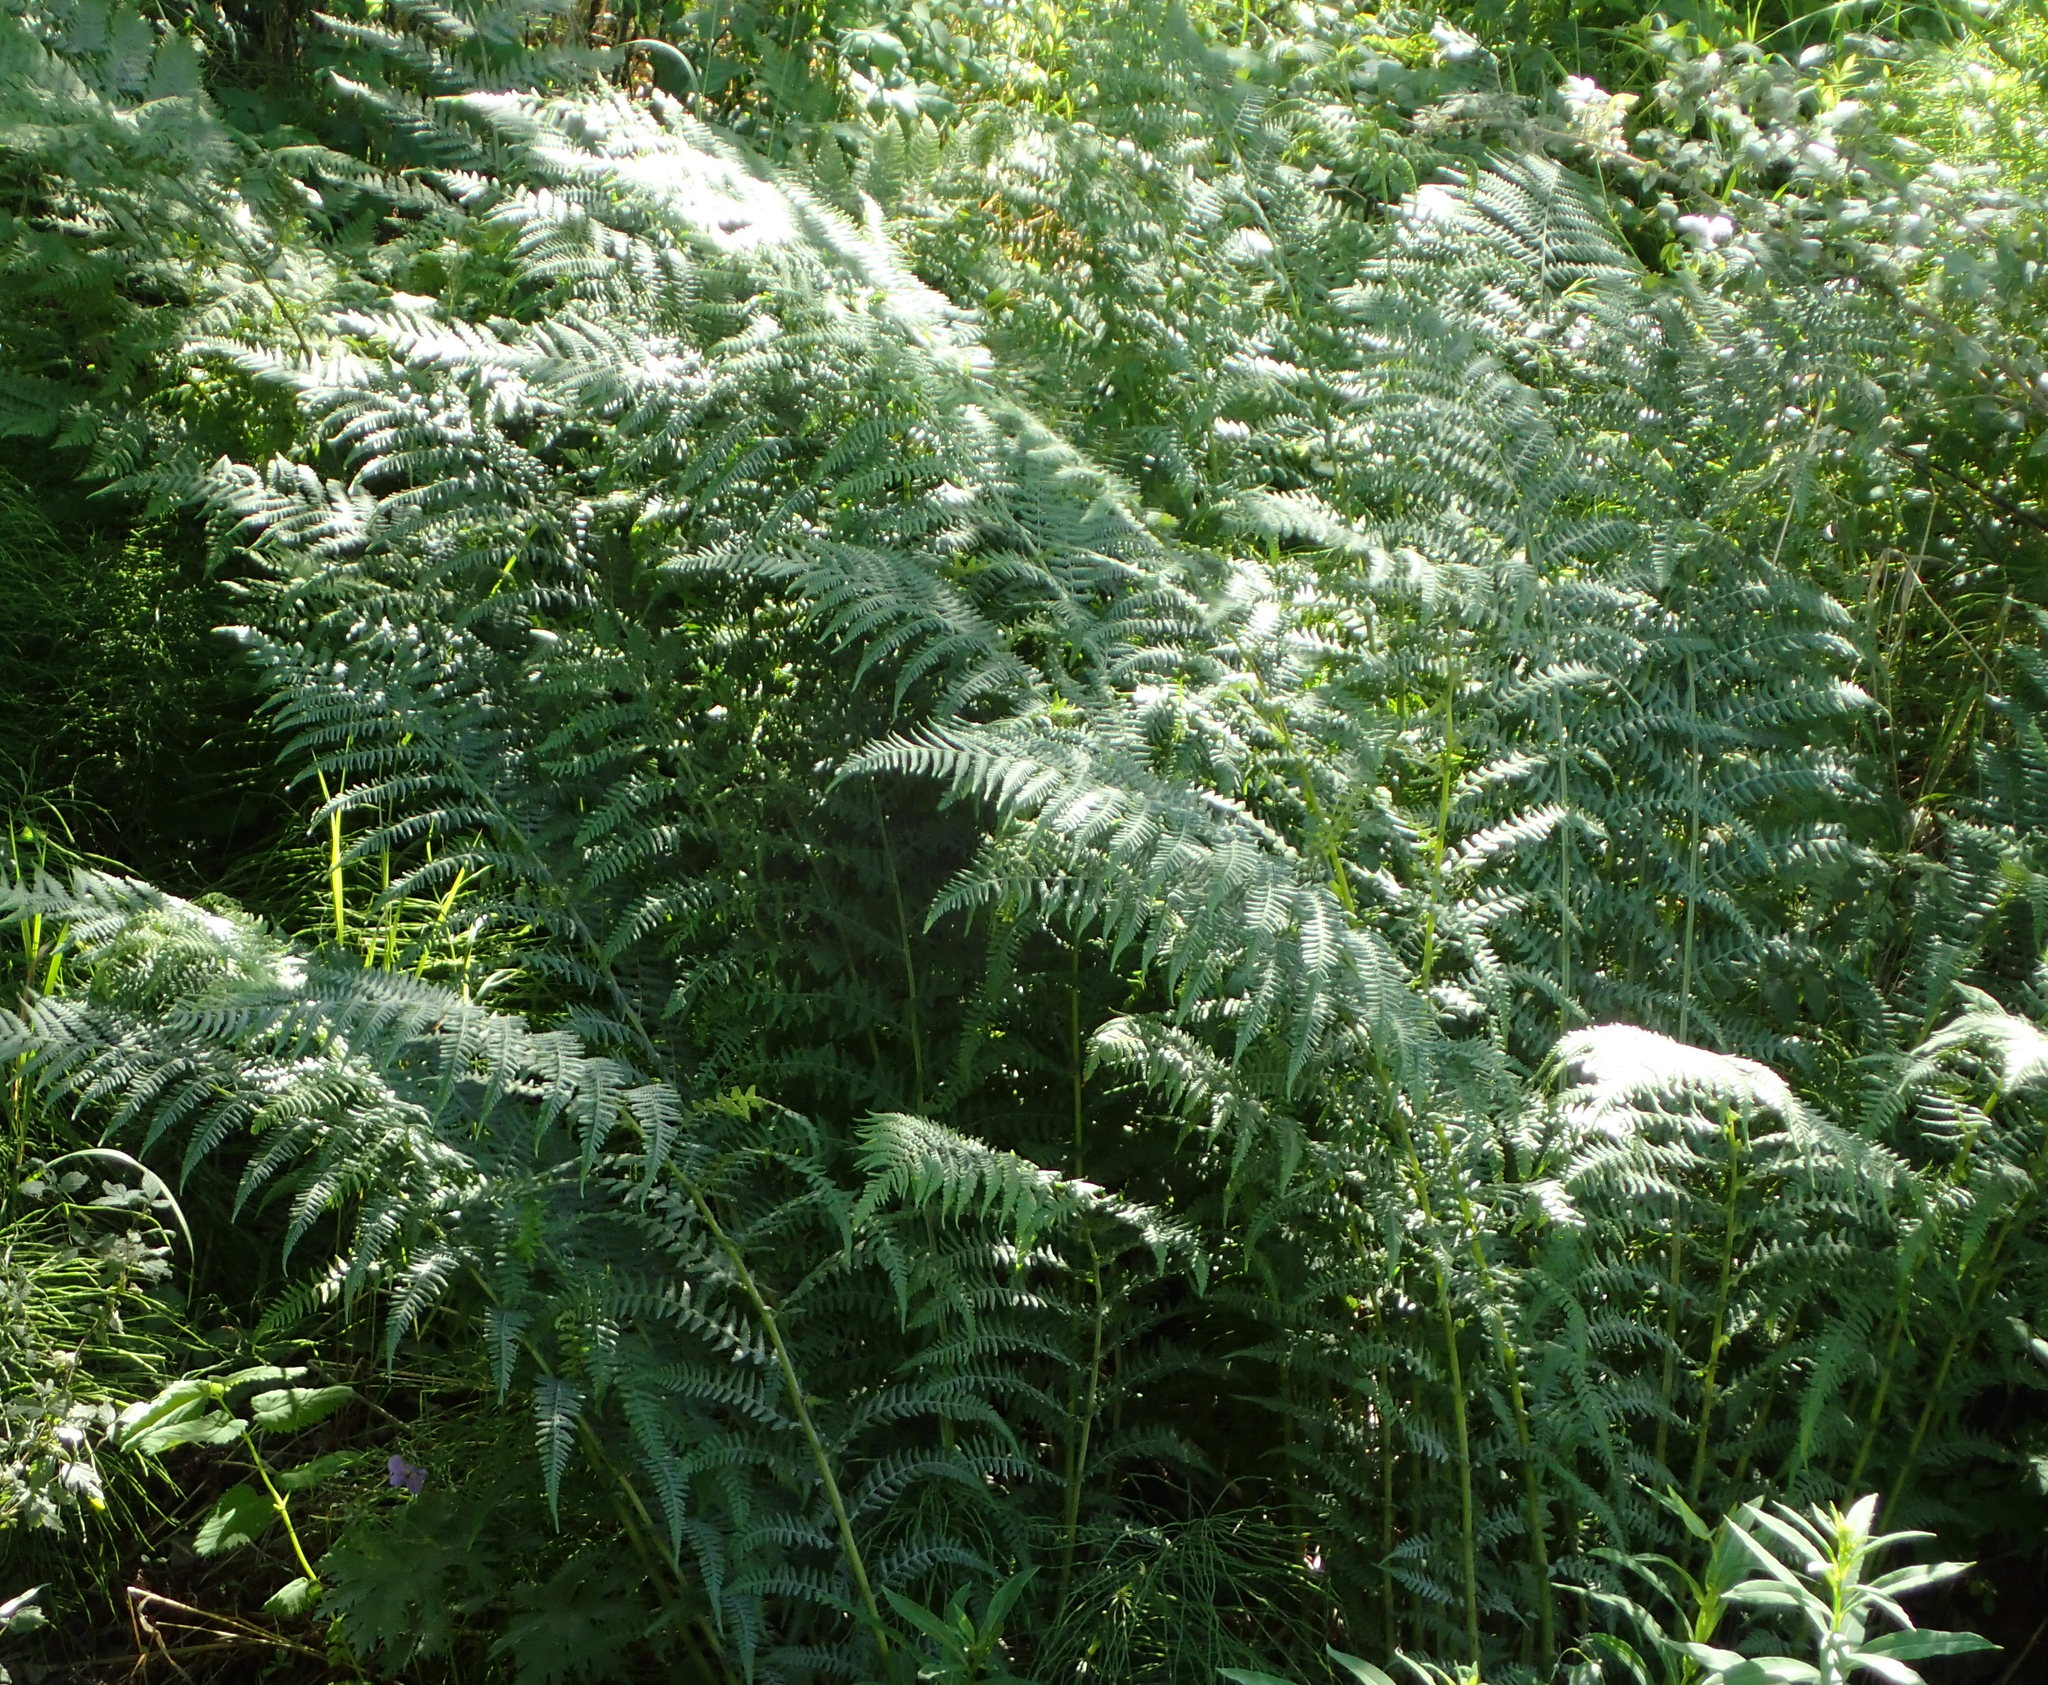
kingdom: Plantae
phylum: Tracheophyta
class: Polypodiopsida
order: Polypodiales
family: Athyriaceae
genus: Athyrium
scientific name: Athyrium filix-femina
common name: Lady fern
